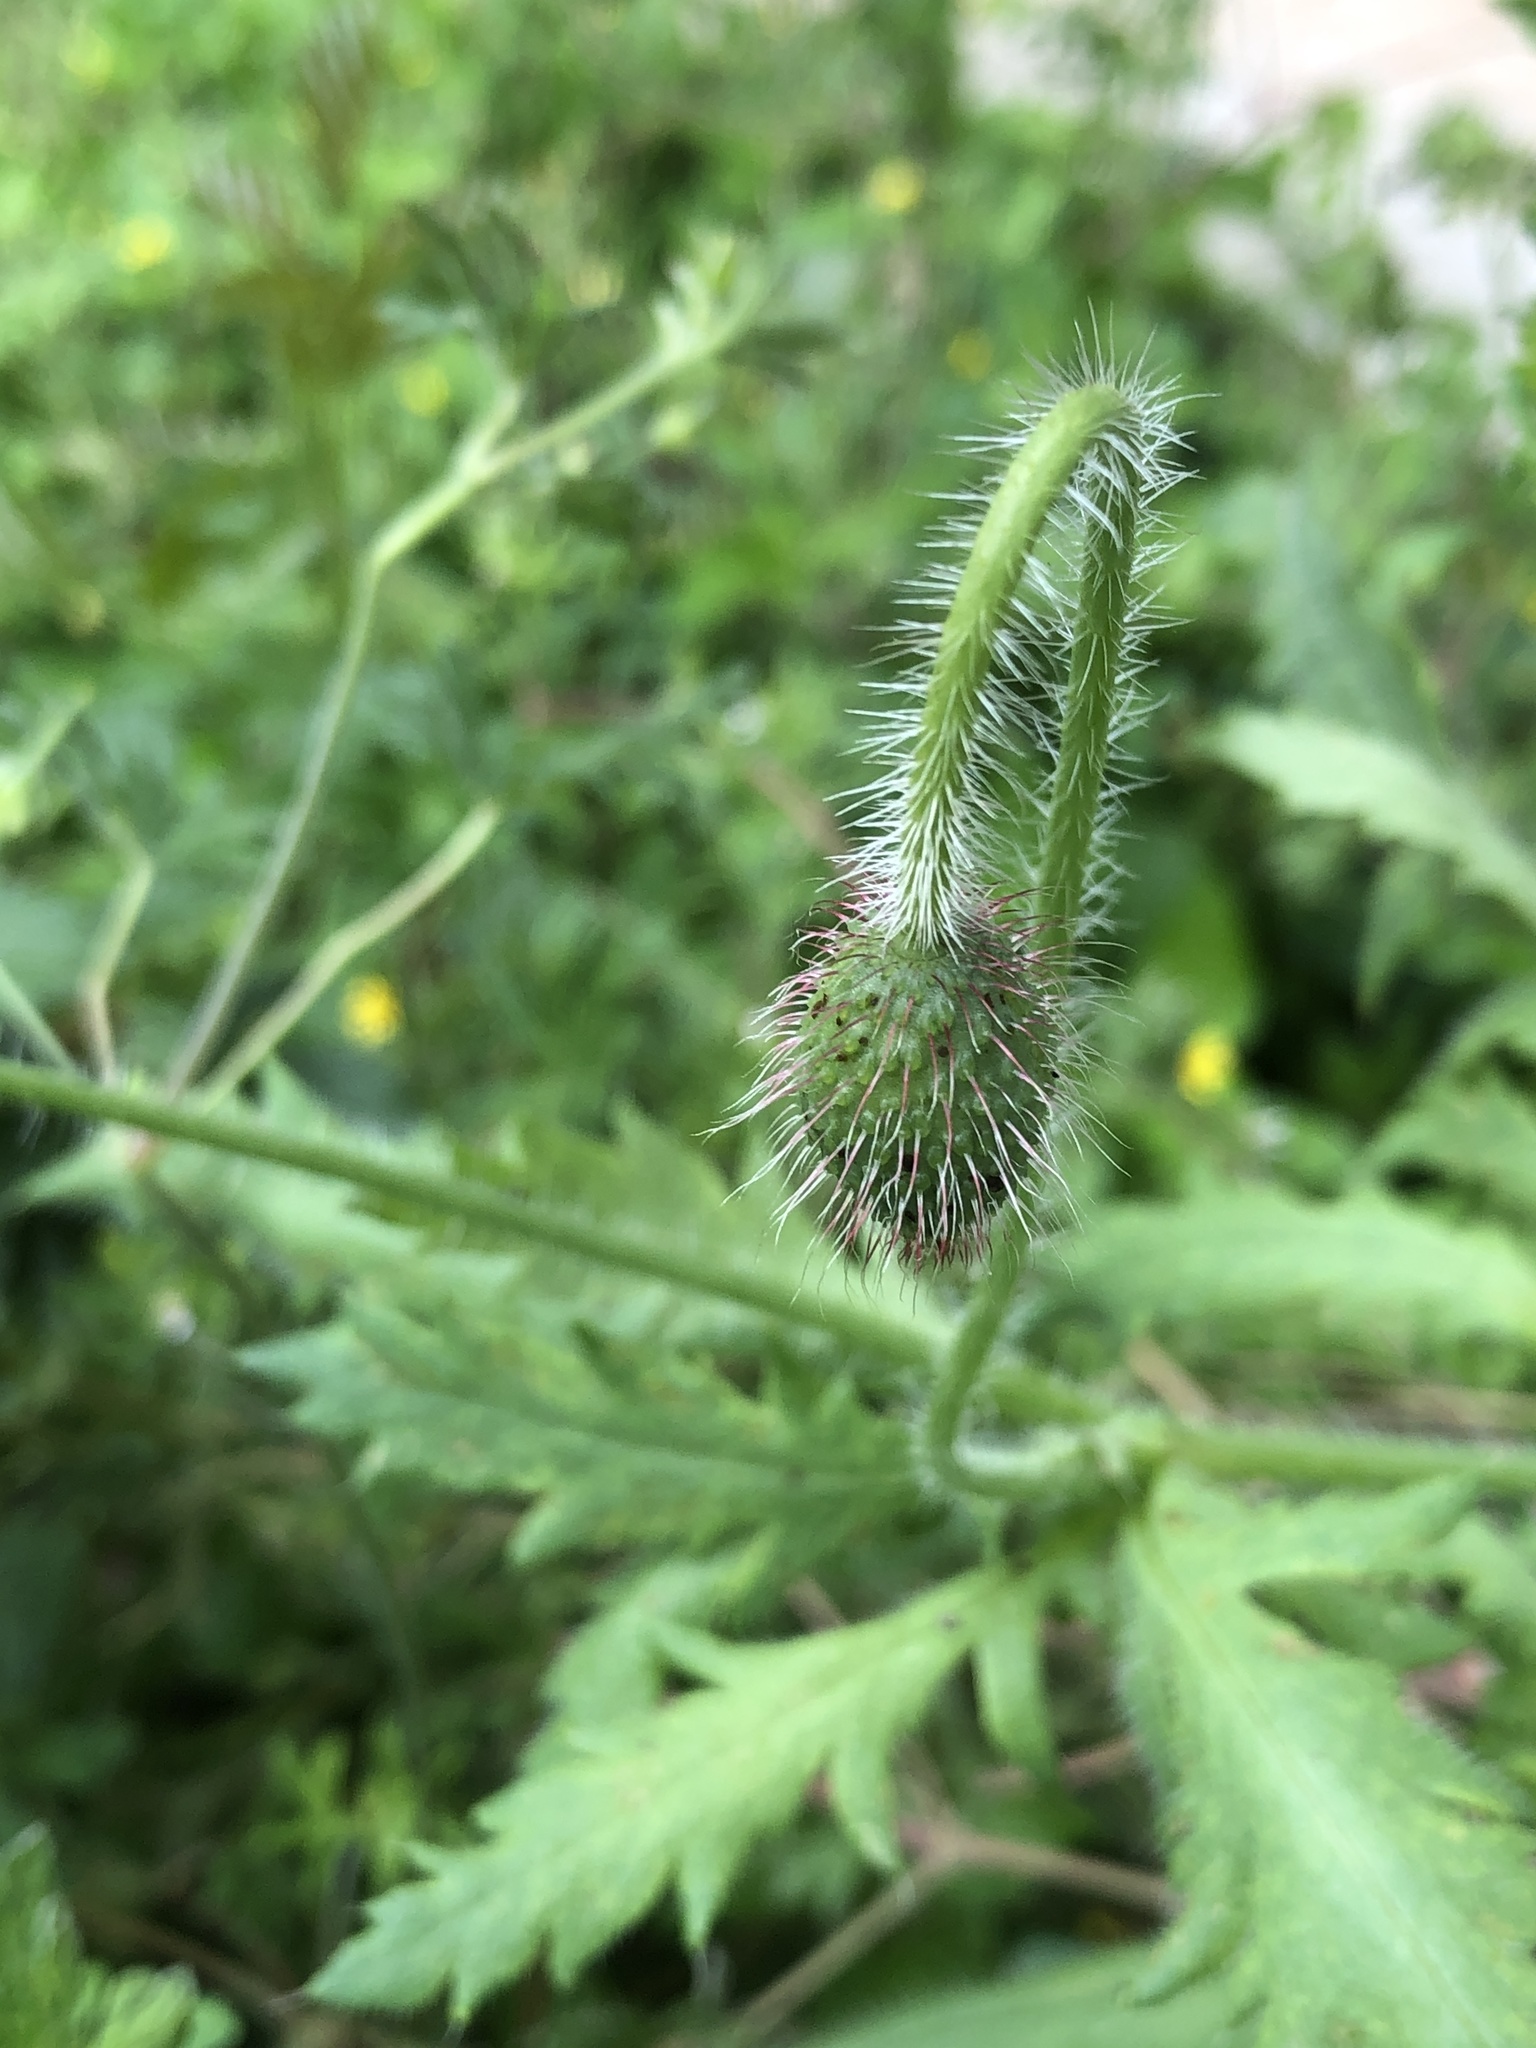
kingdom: Plantae
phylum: Tracheophyta
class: Magnoliopsida
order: Ranunculales
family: Papaveraceae
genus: Papaver
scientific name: Papaver rhoeas
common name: Corn poppy
